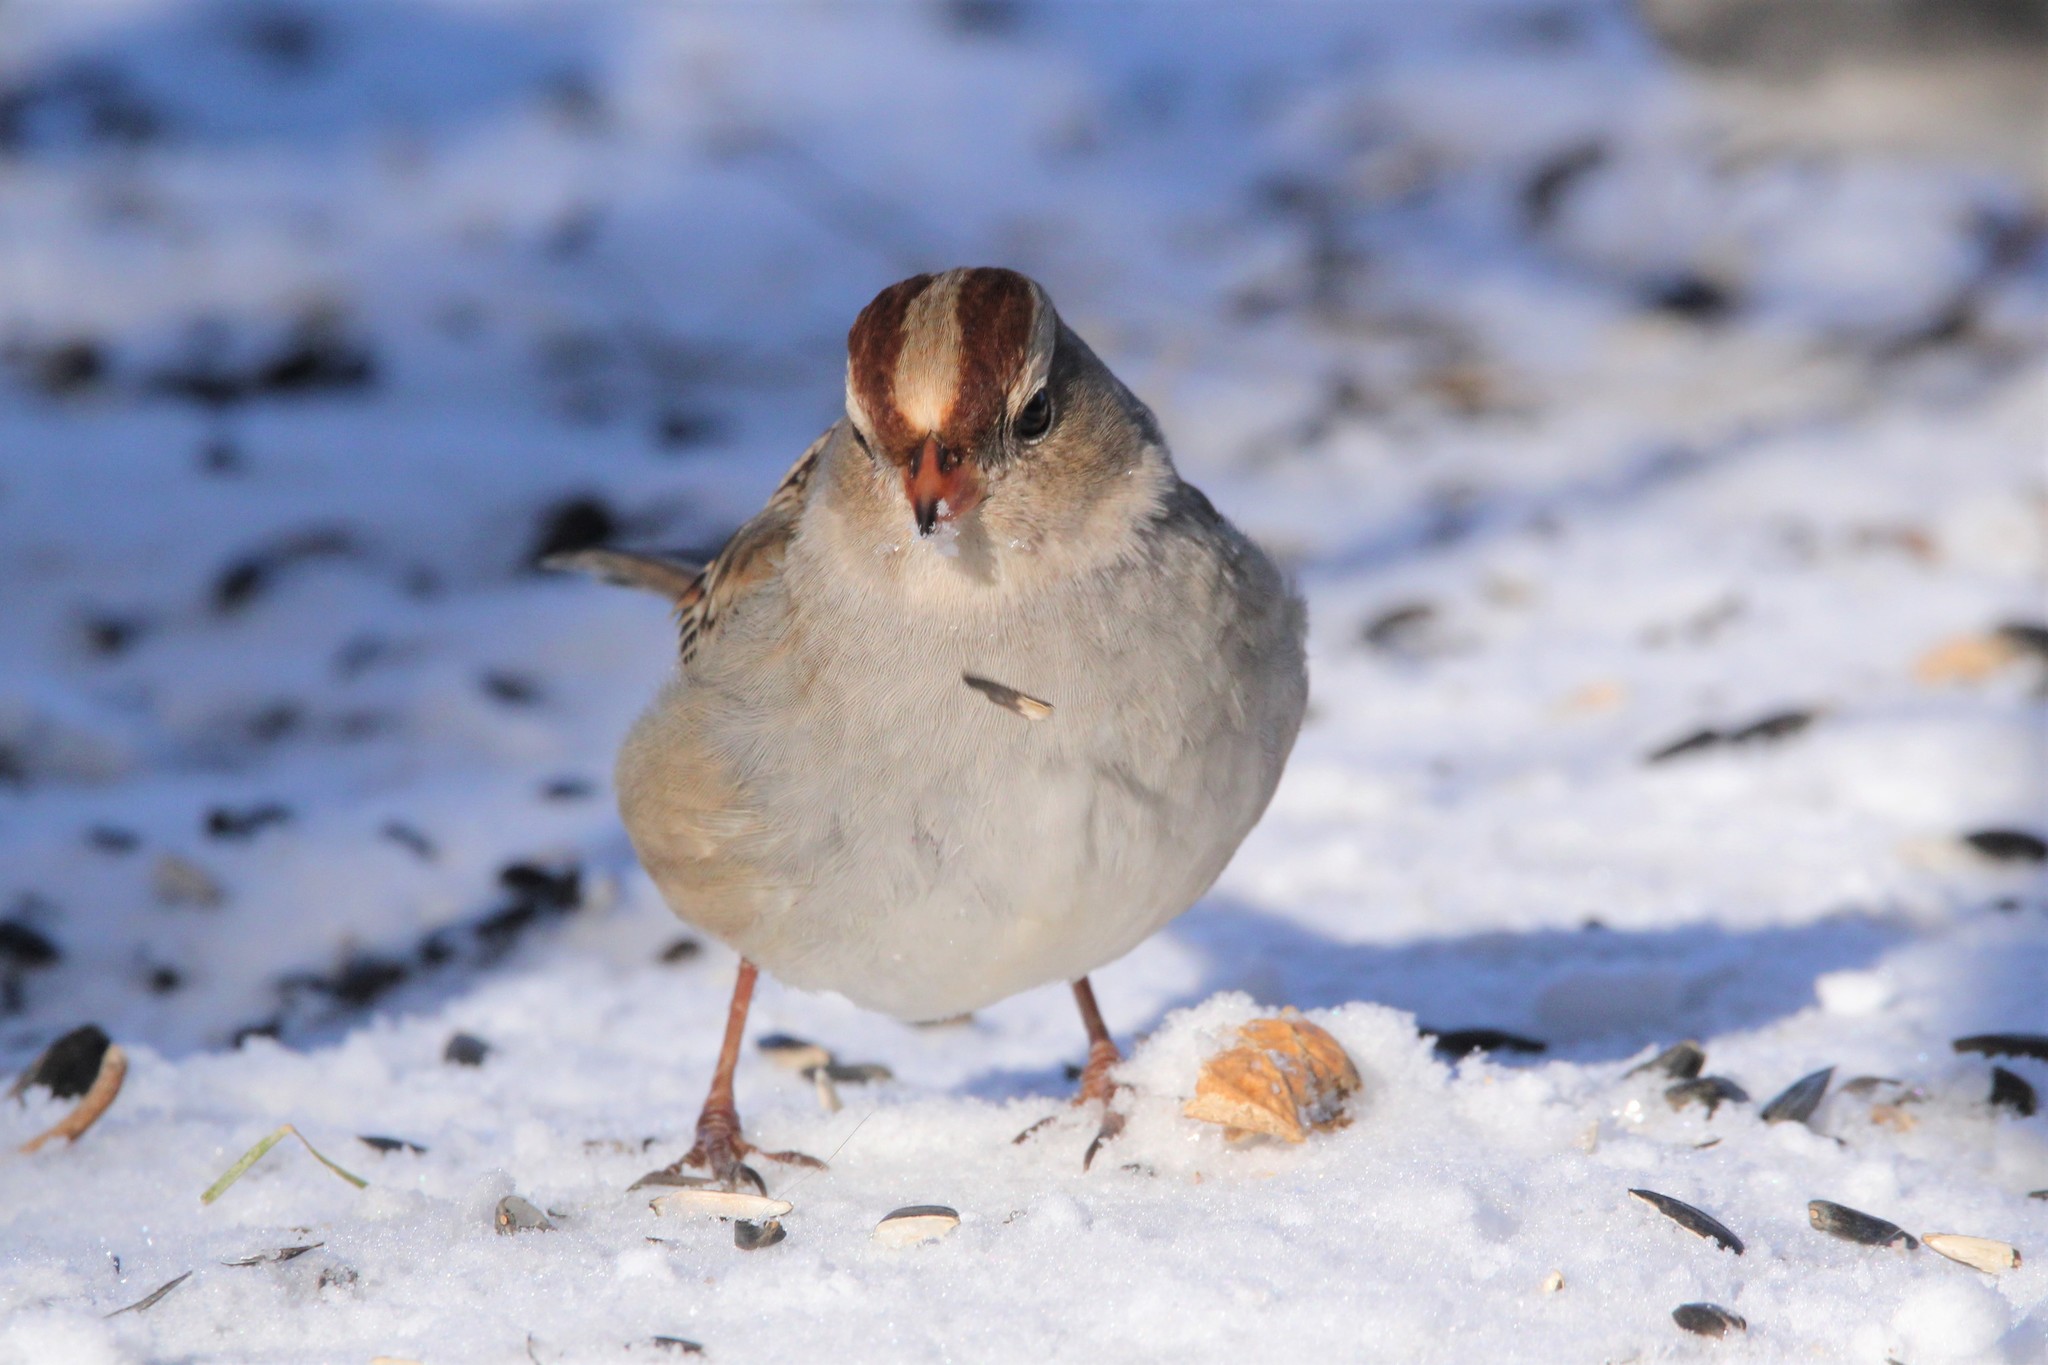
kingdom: Animalia
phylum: Chordata
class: Aves
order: Passeriformes
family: Passerellidae
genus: Zonotrichia
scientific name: Zonotrichia leucophrys
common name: White-crowned sparrow
